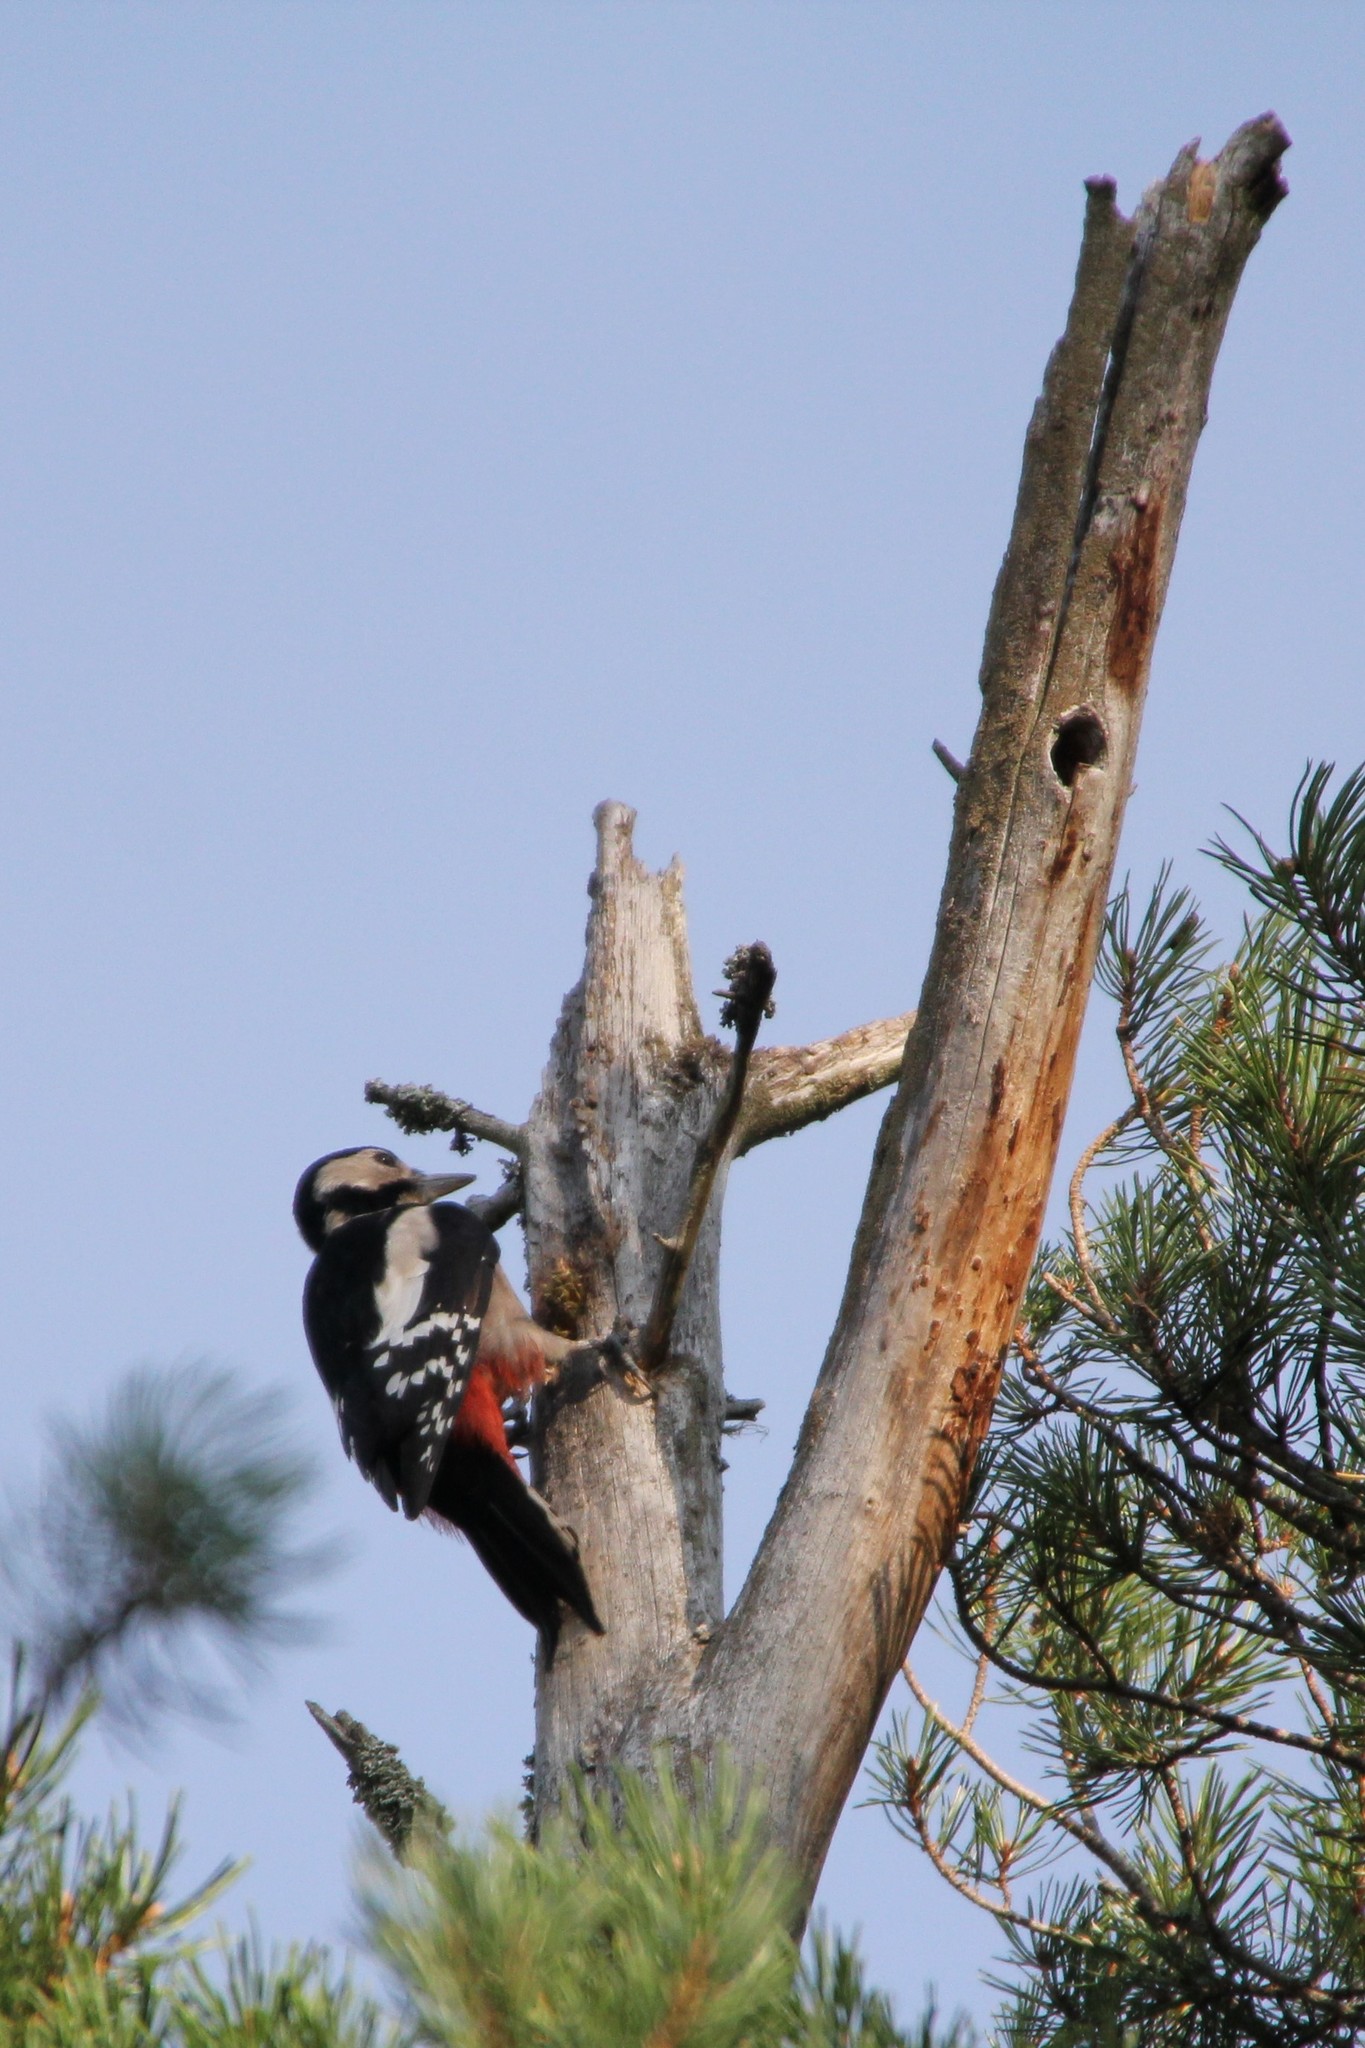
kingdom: Animalia
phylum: Chordata
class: Aves
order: Piciformes
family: Picidae
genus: Dendrocopos
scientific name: Dendrocopos major
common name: Great spotted woodpecker
